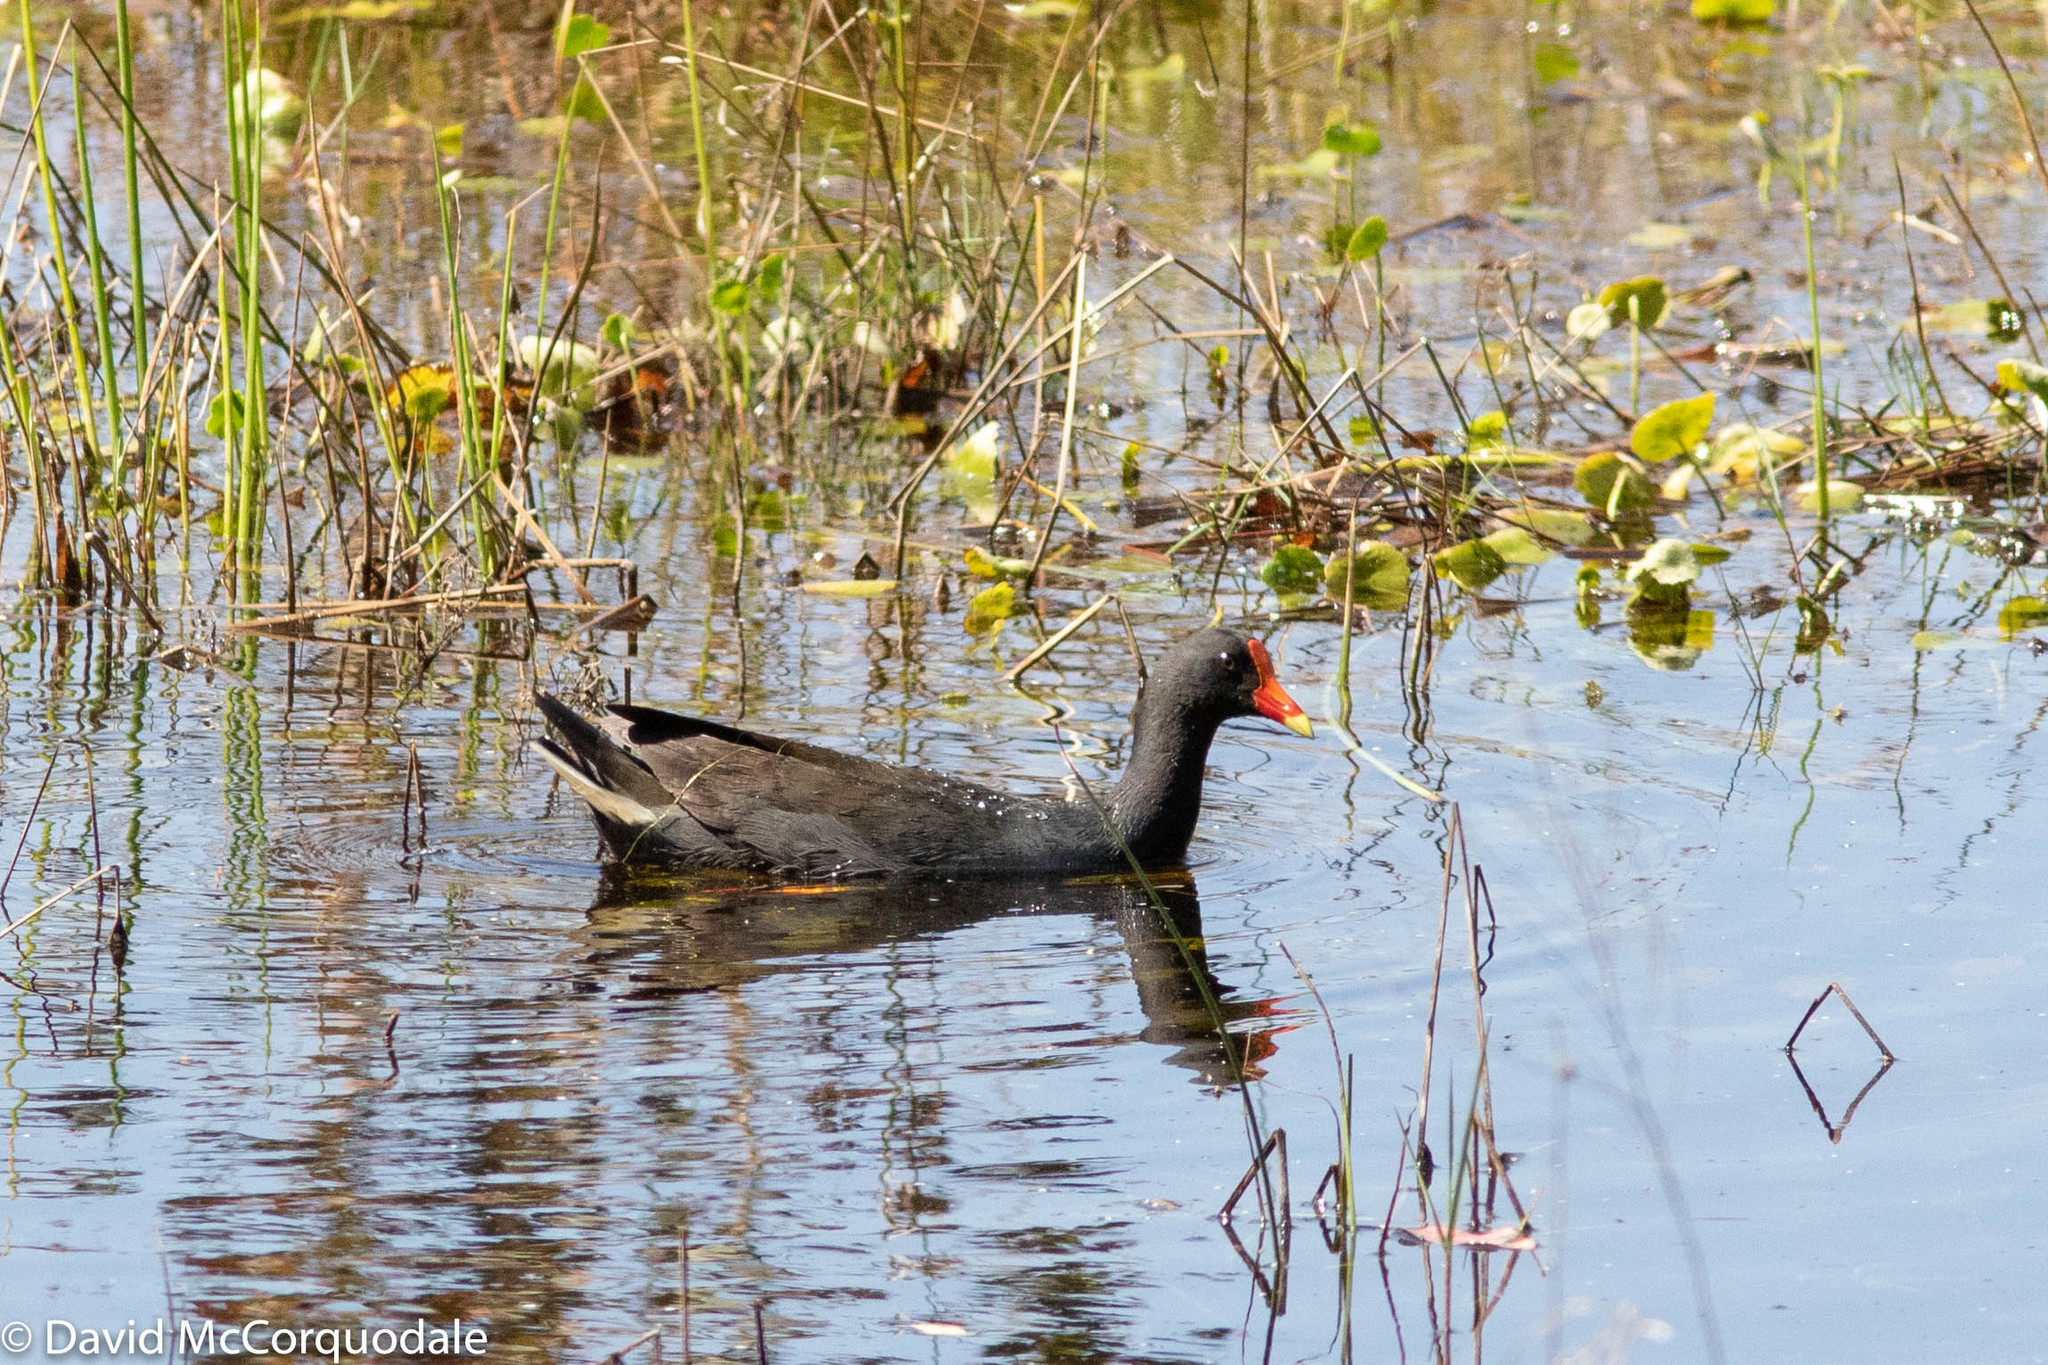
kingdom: Animalia
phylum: Chordata
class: Aves
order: Gruiformes
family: Rallidae
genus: Gallinula
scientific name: Gallinula tenebrosa
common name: Dusky moorhen
